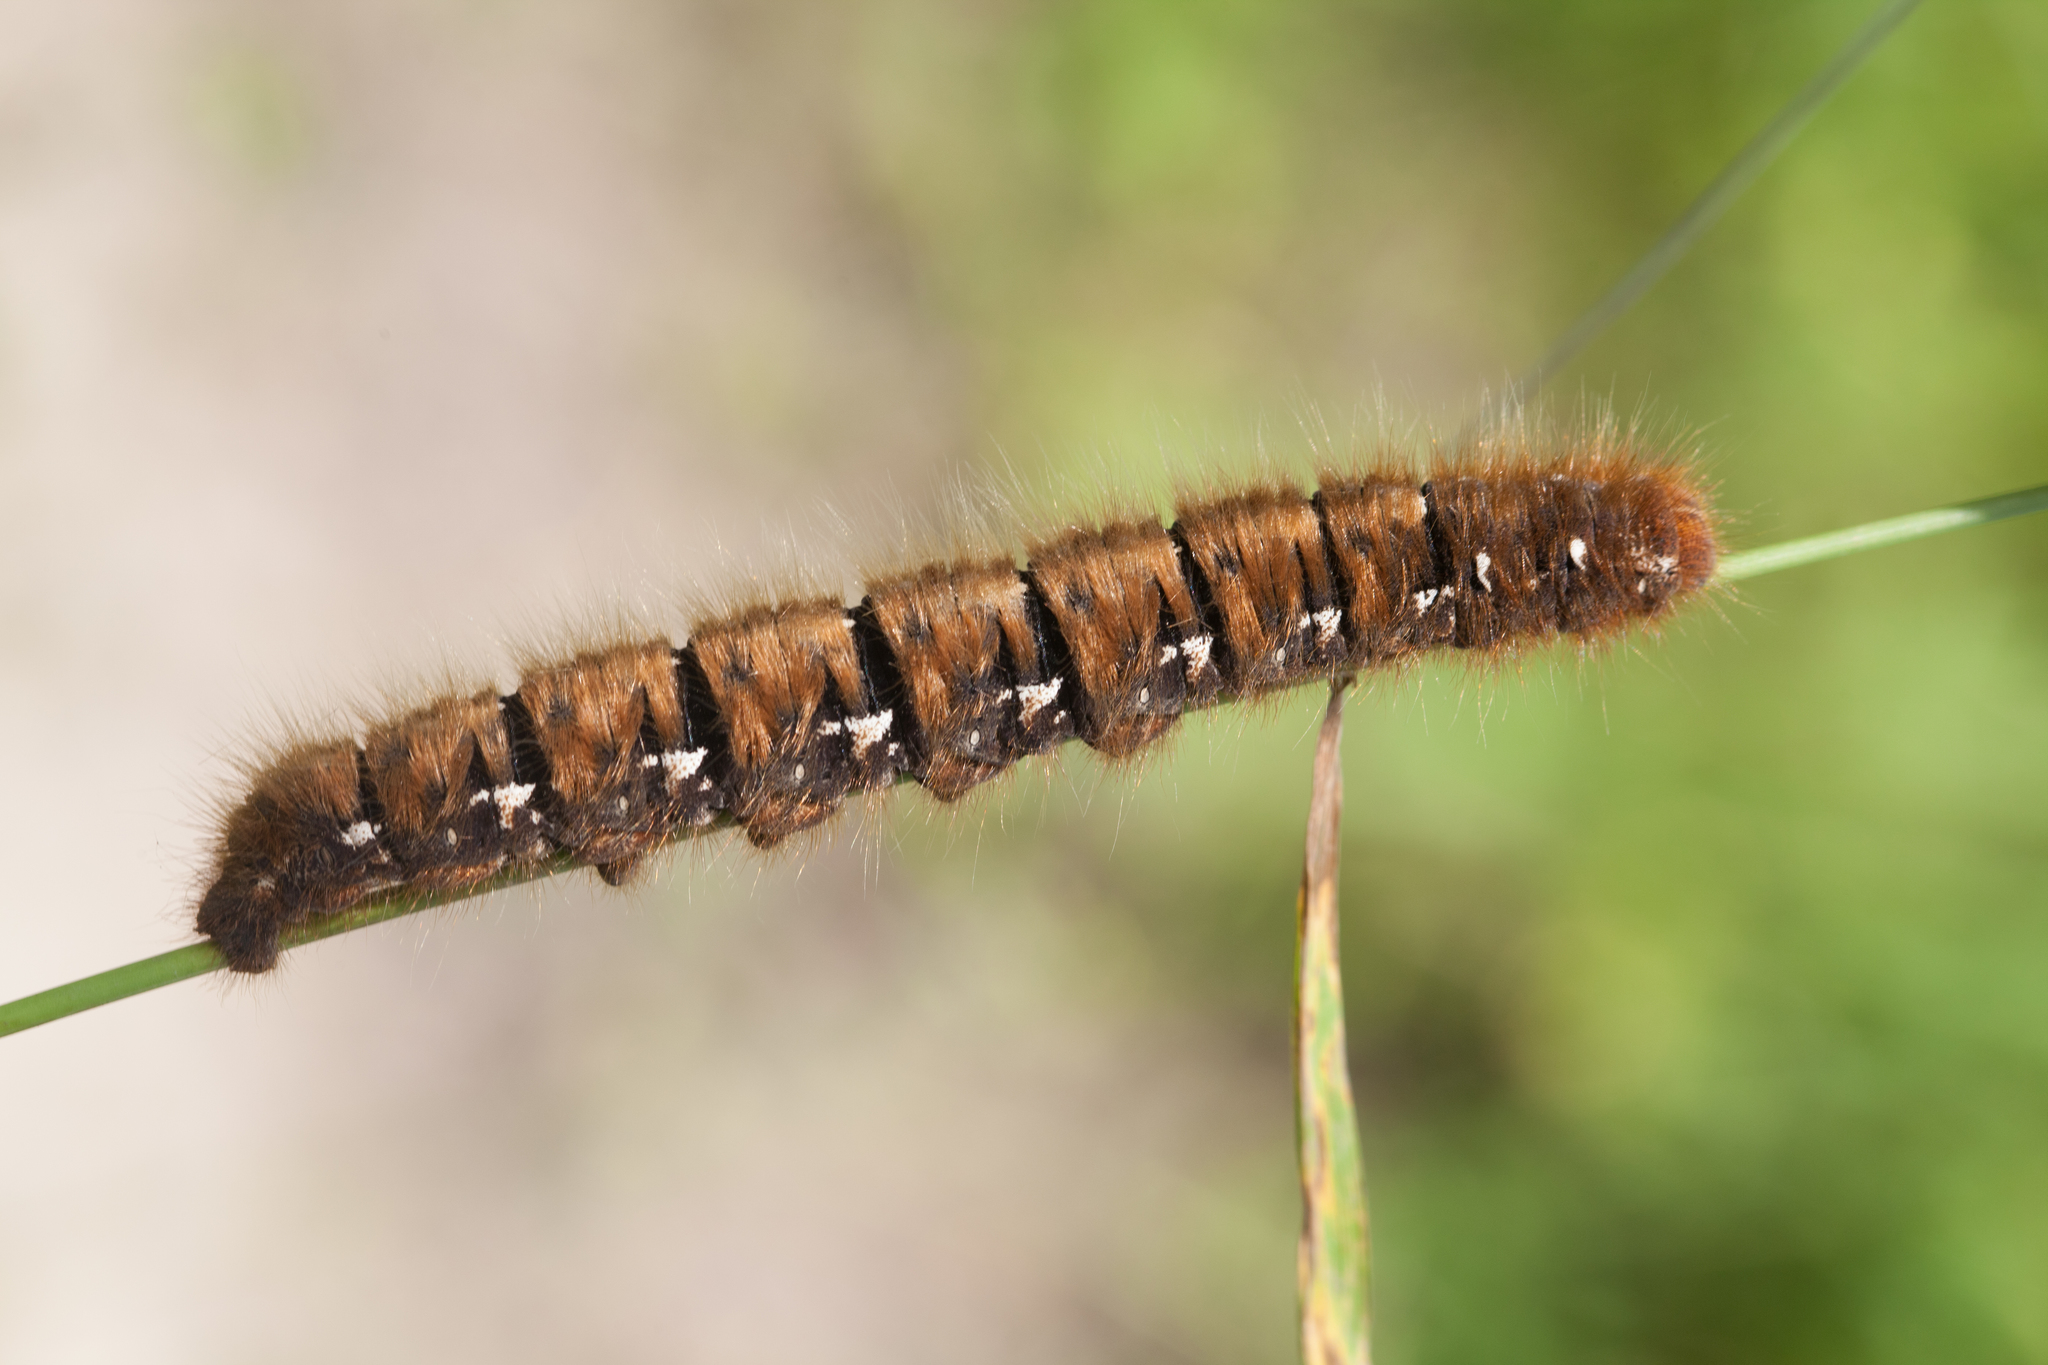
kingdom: Animalia
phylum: Arthropoda
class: Insecta
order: Lepidoptera
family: Lasiocampidae
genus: Lasiocampa
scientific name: Lasiocampa quercus
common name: Oak eggar
